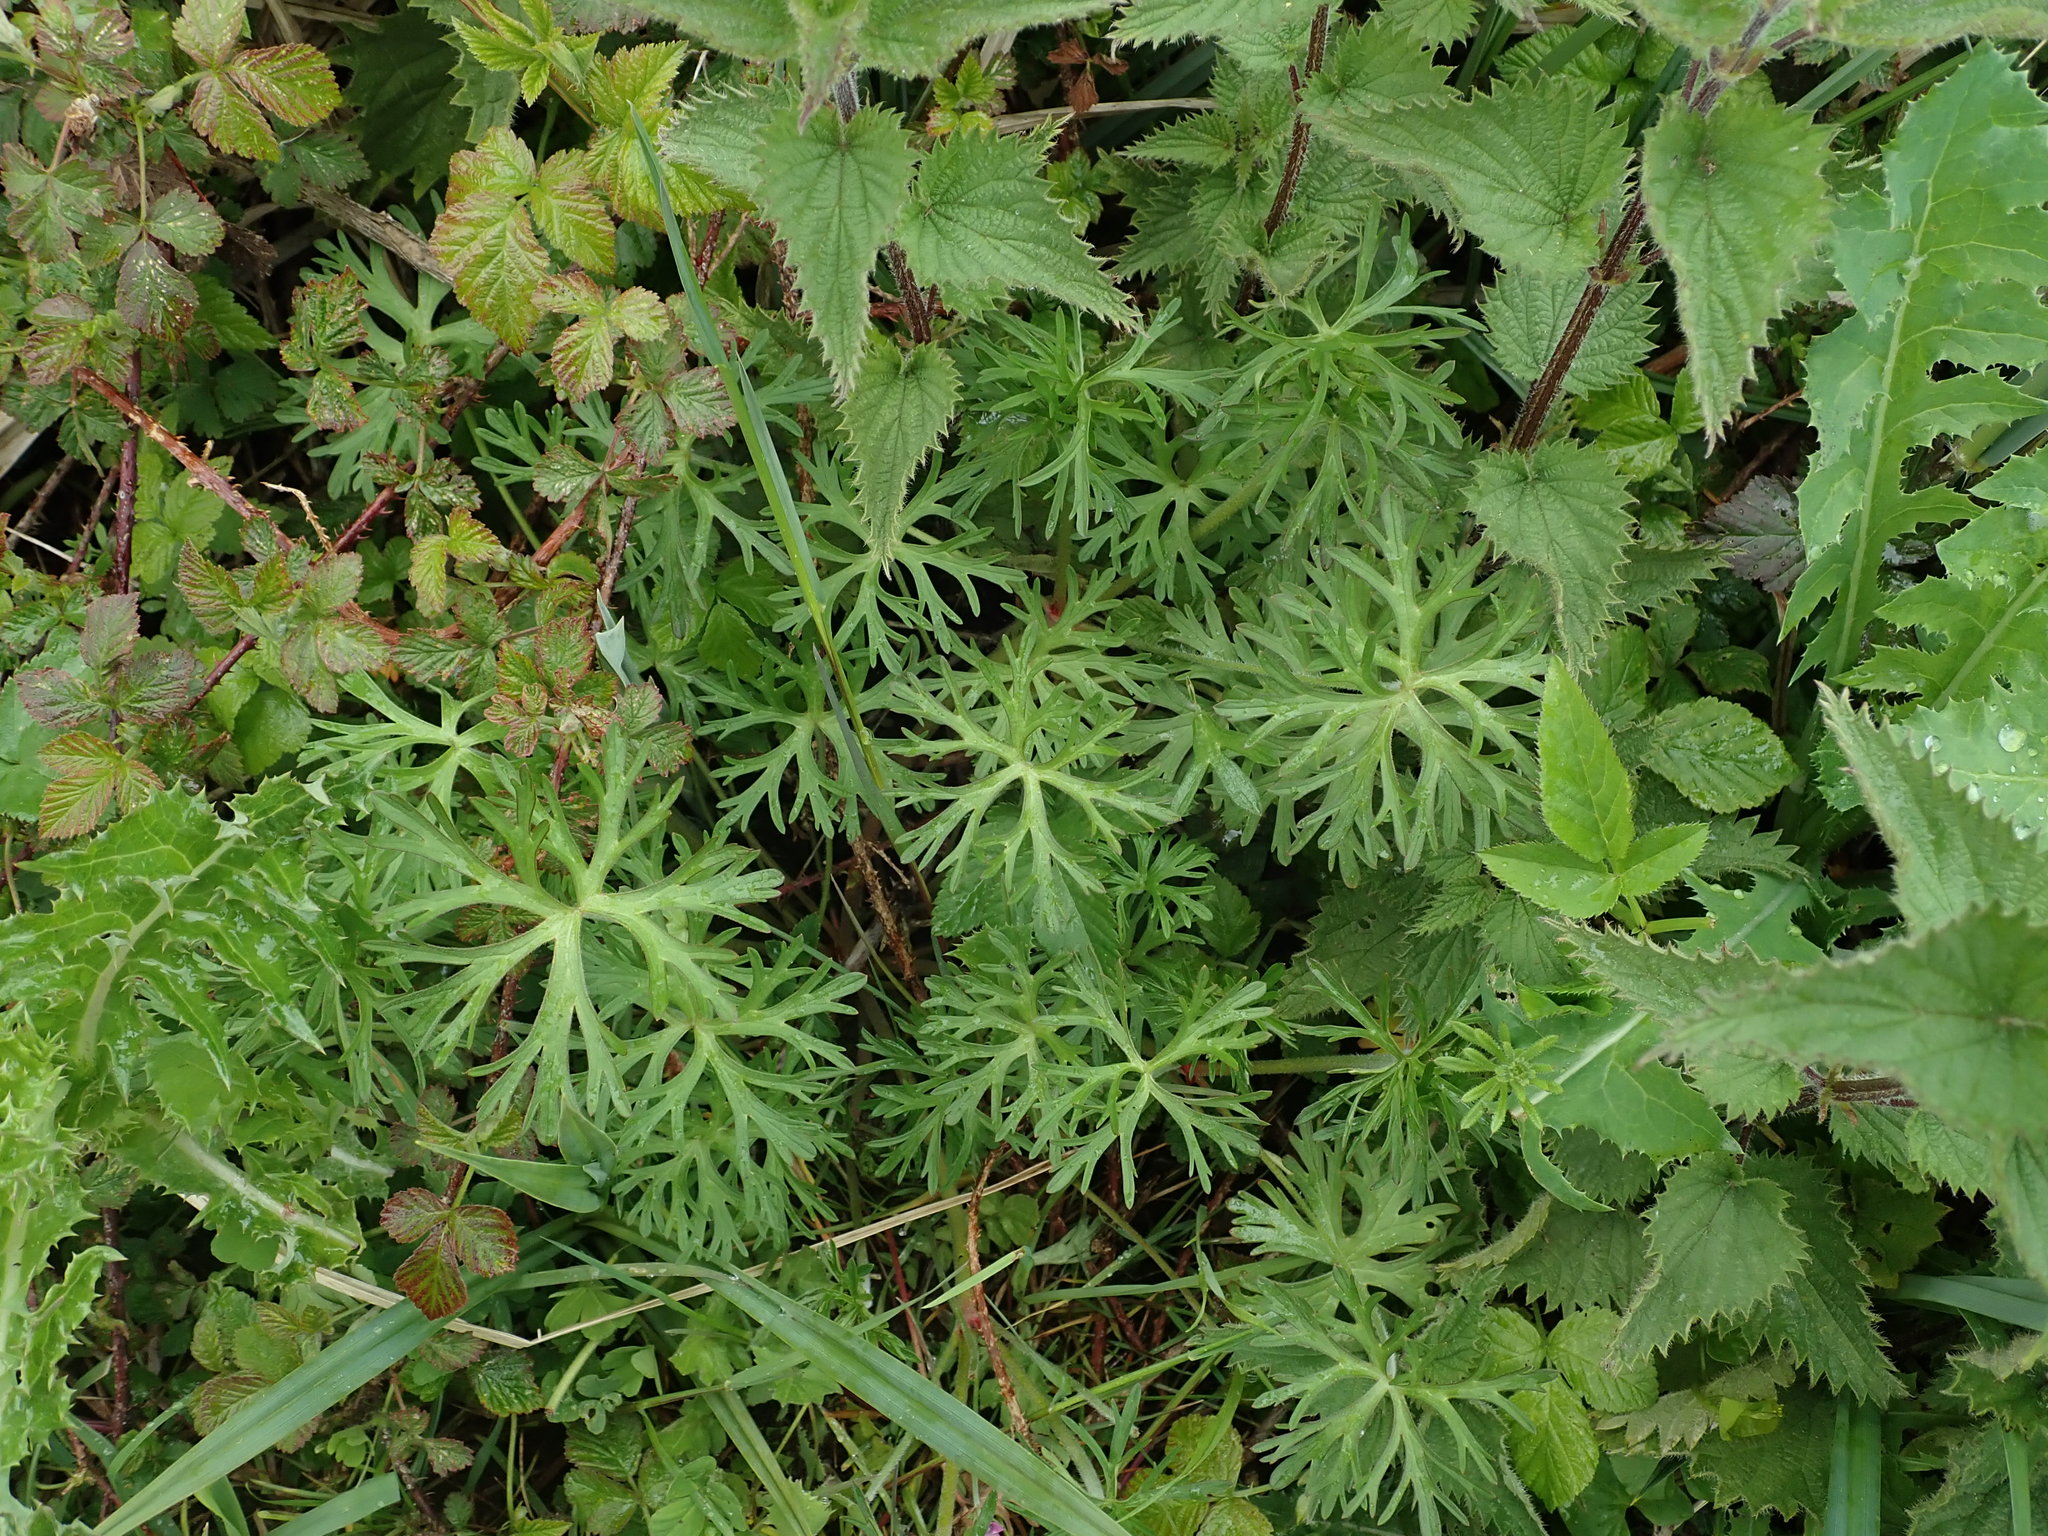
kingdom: Plantae
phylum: Tracheophyta
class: Magnoliopsida
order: Geraniales
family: Geraniaceae
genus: Geranium
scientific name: Geranium dissectum
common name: Cut-leaved crane's-bill
